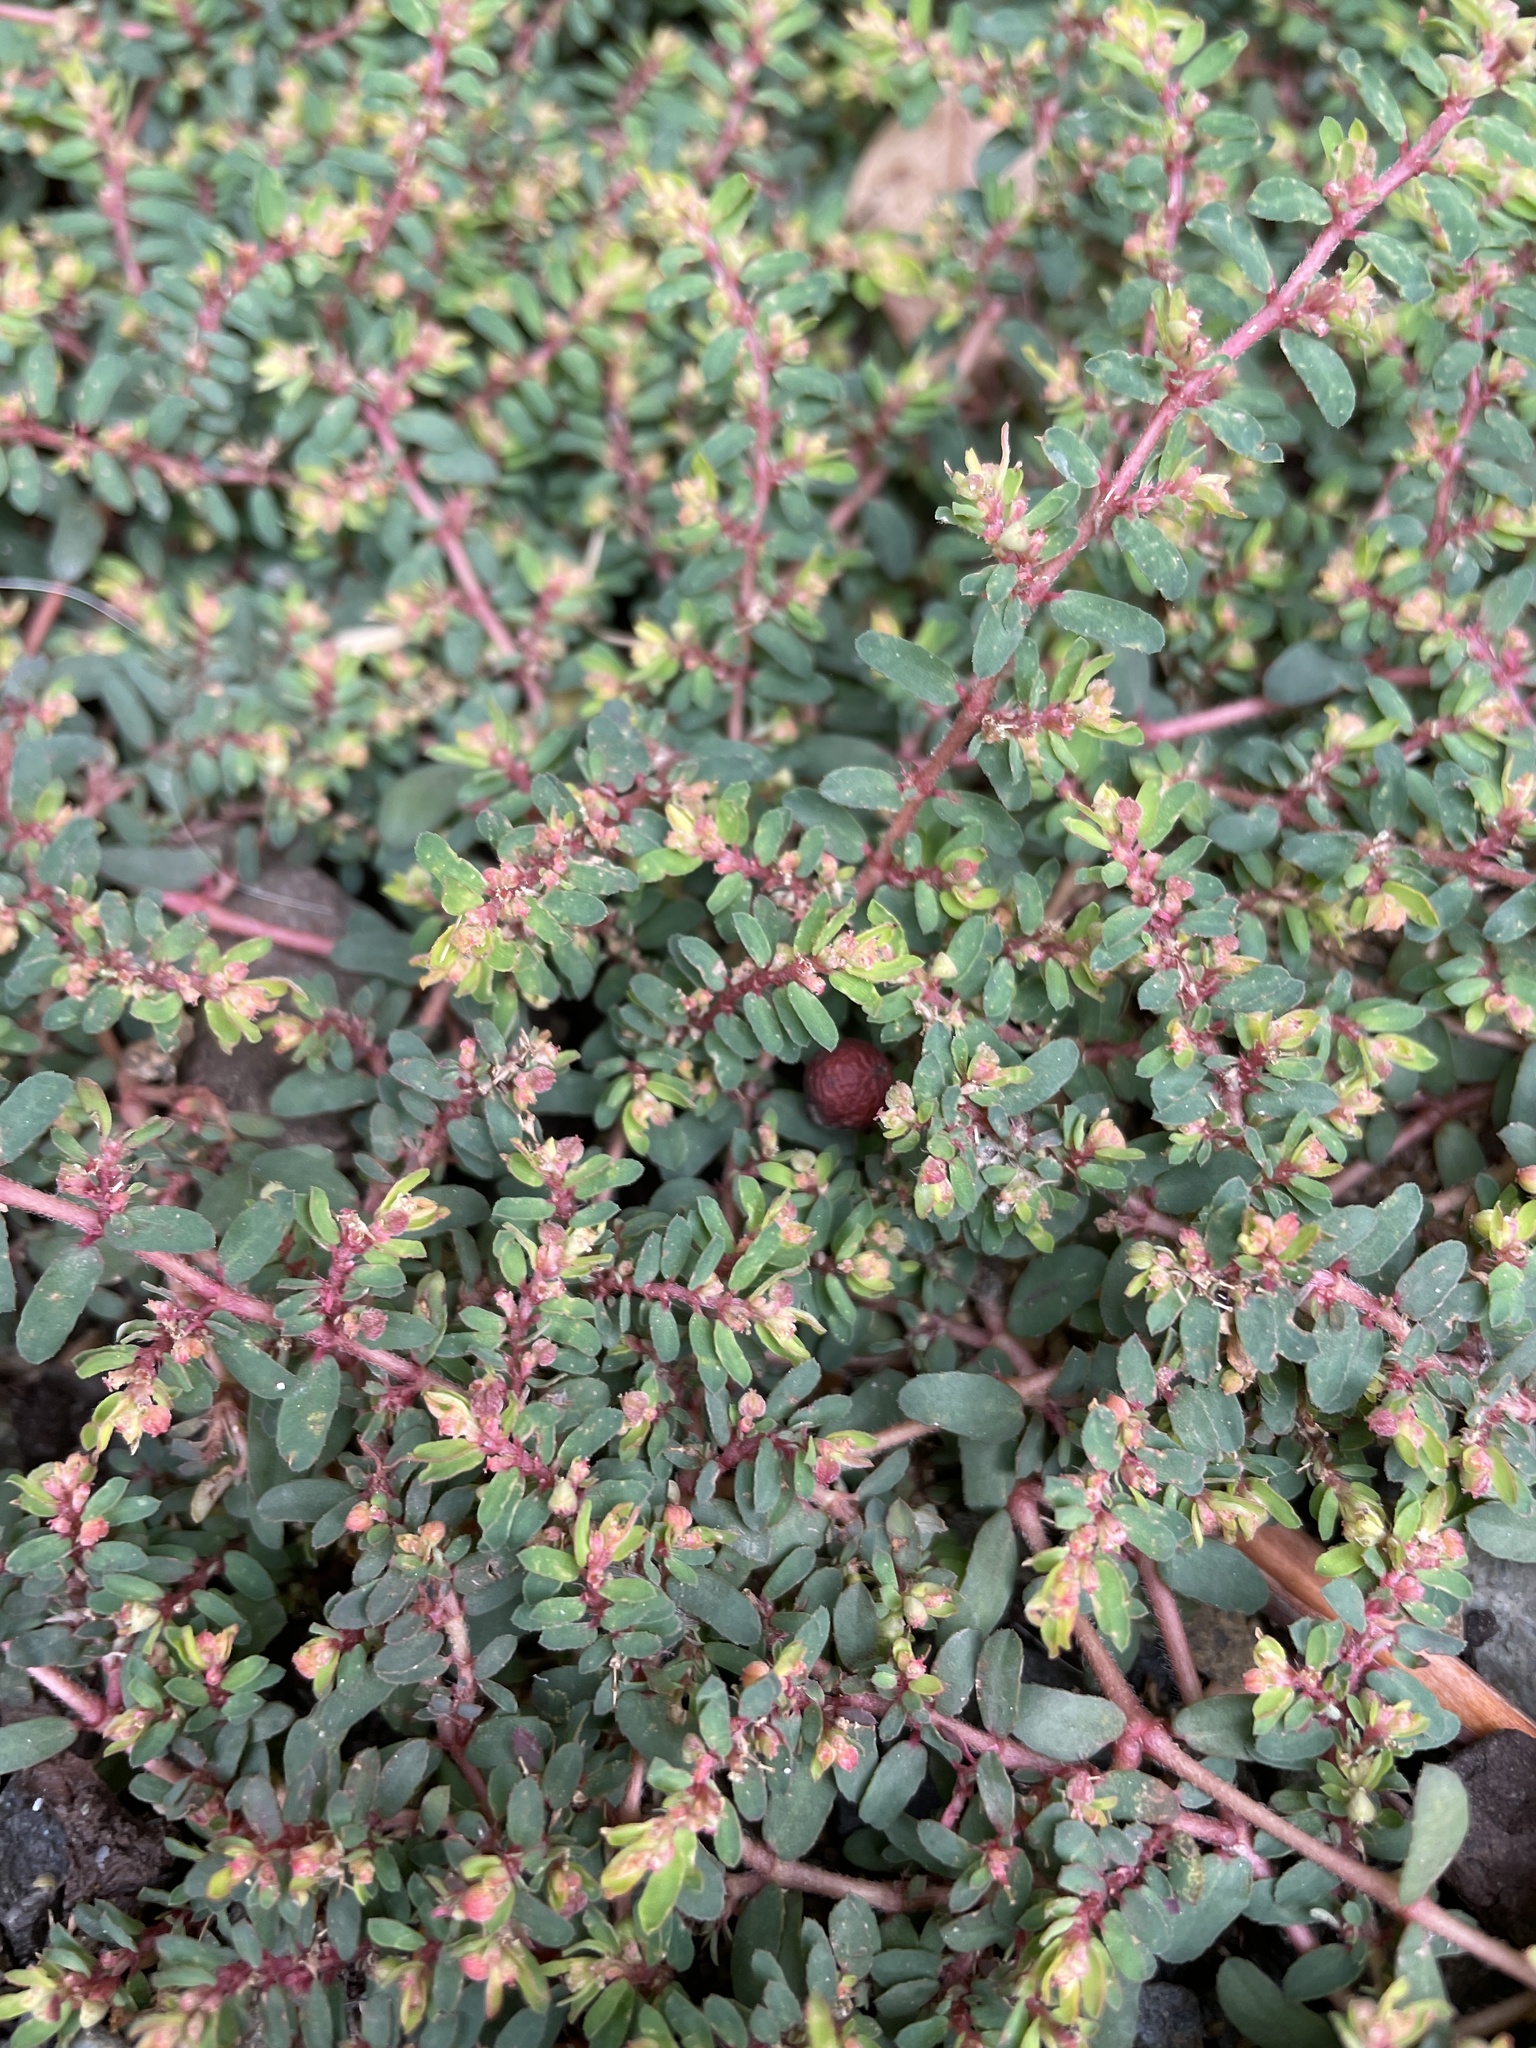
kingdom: Plantae
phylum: Tracheophyta
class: Magnoliopsida
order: Malpighiales
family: Euphorbiaceae
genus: Euphorbia
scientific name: Euphorbia maculata
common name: Spotted spurge
